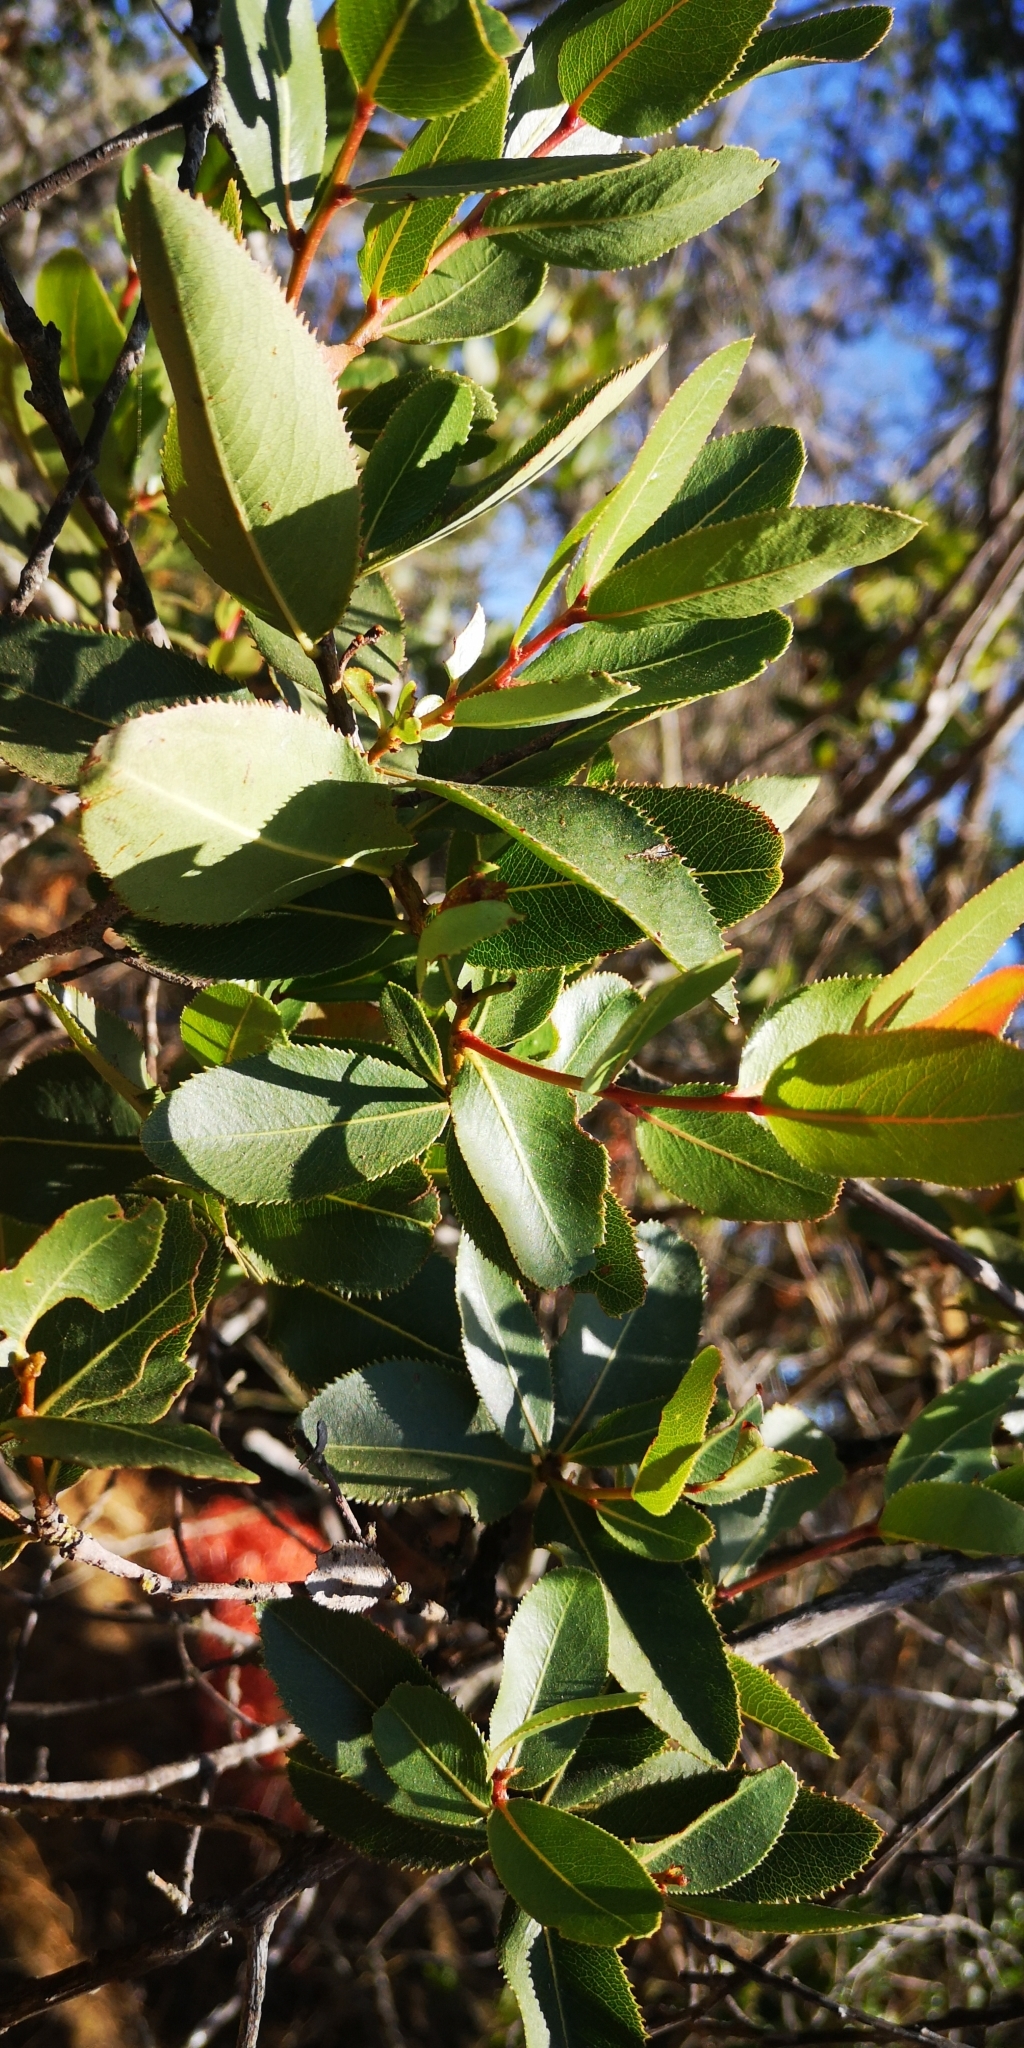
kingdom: Plantae
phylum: Tracheophyta
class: Magnoliopsida
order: Rosales
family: Rosaceae
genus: Kageneckia
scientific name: Kageneckia oblonga
